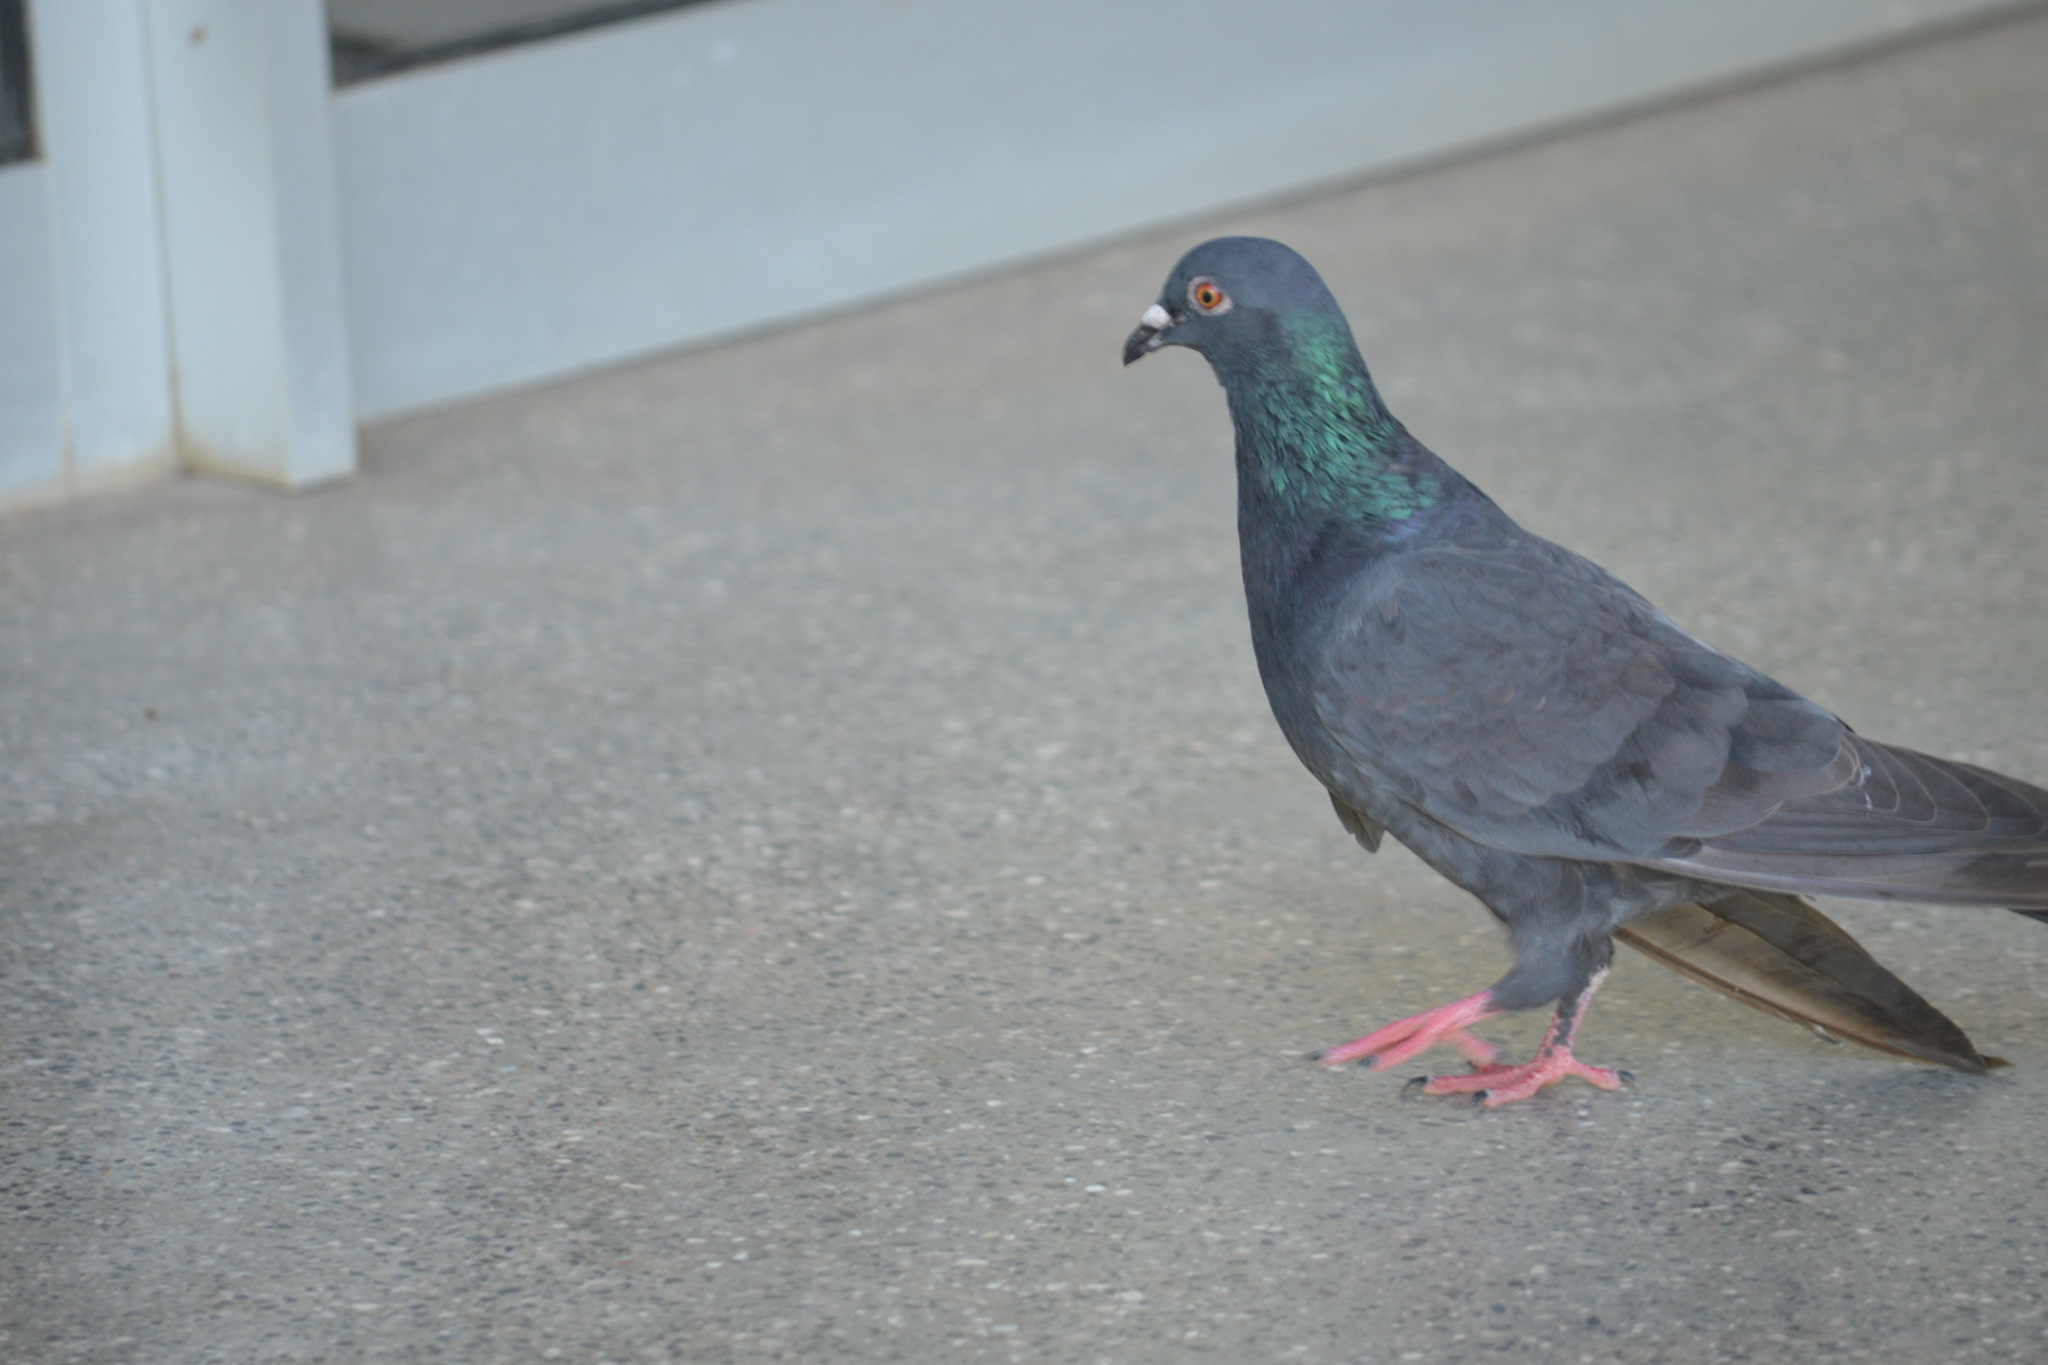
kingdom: Animalia
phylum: Chordata
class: Aves
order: Columbiformes
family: Columbidae
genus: Columba
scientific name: Columba livia
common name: Rock pigeon
